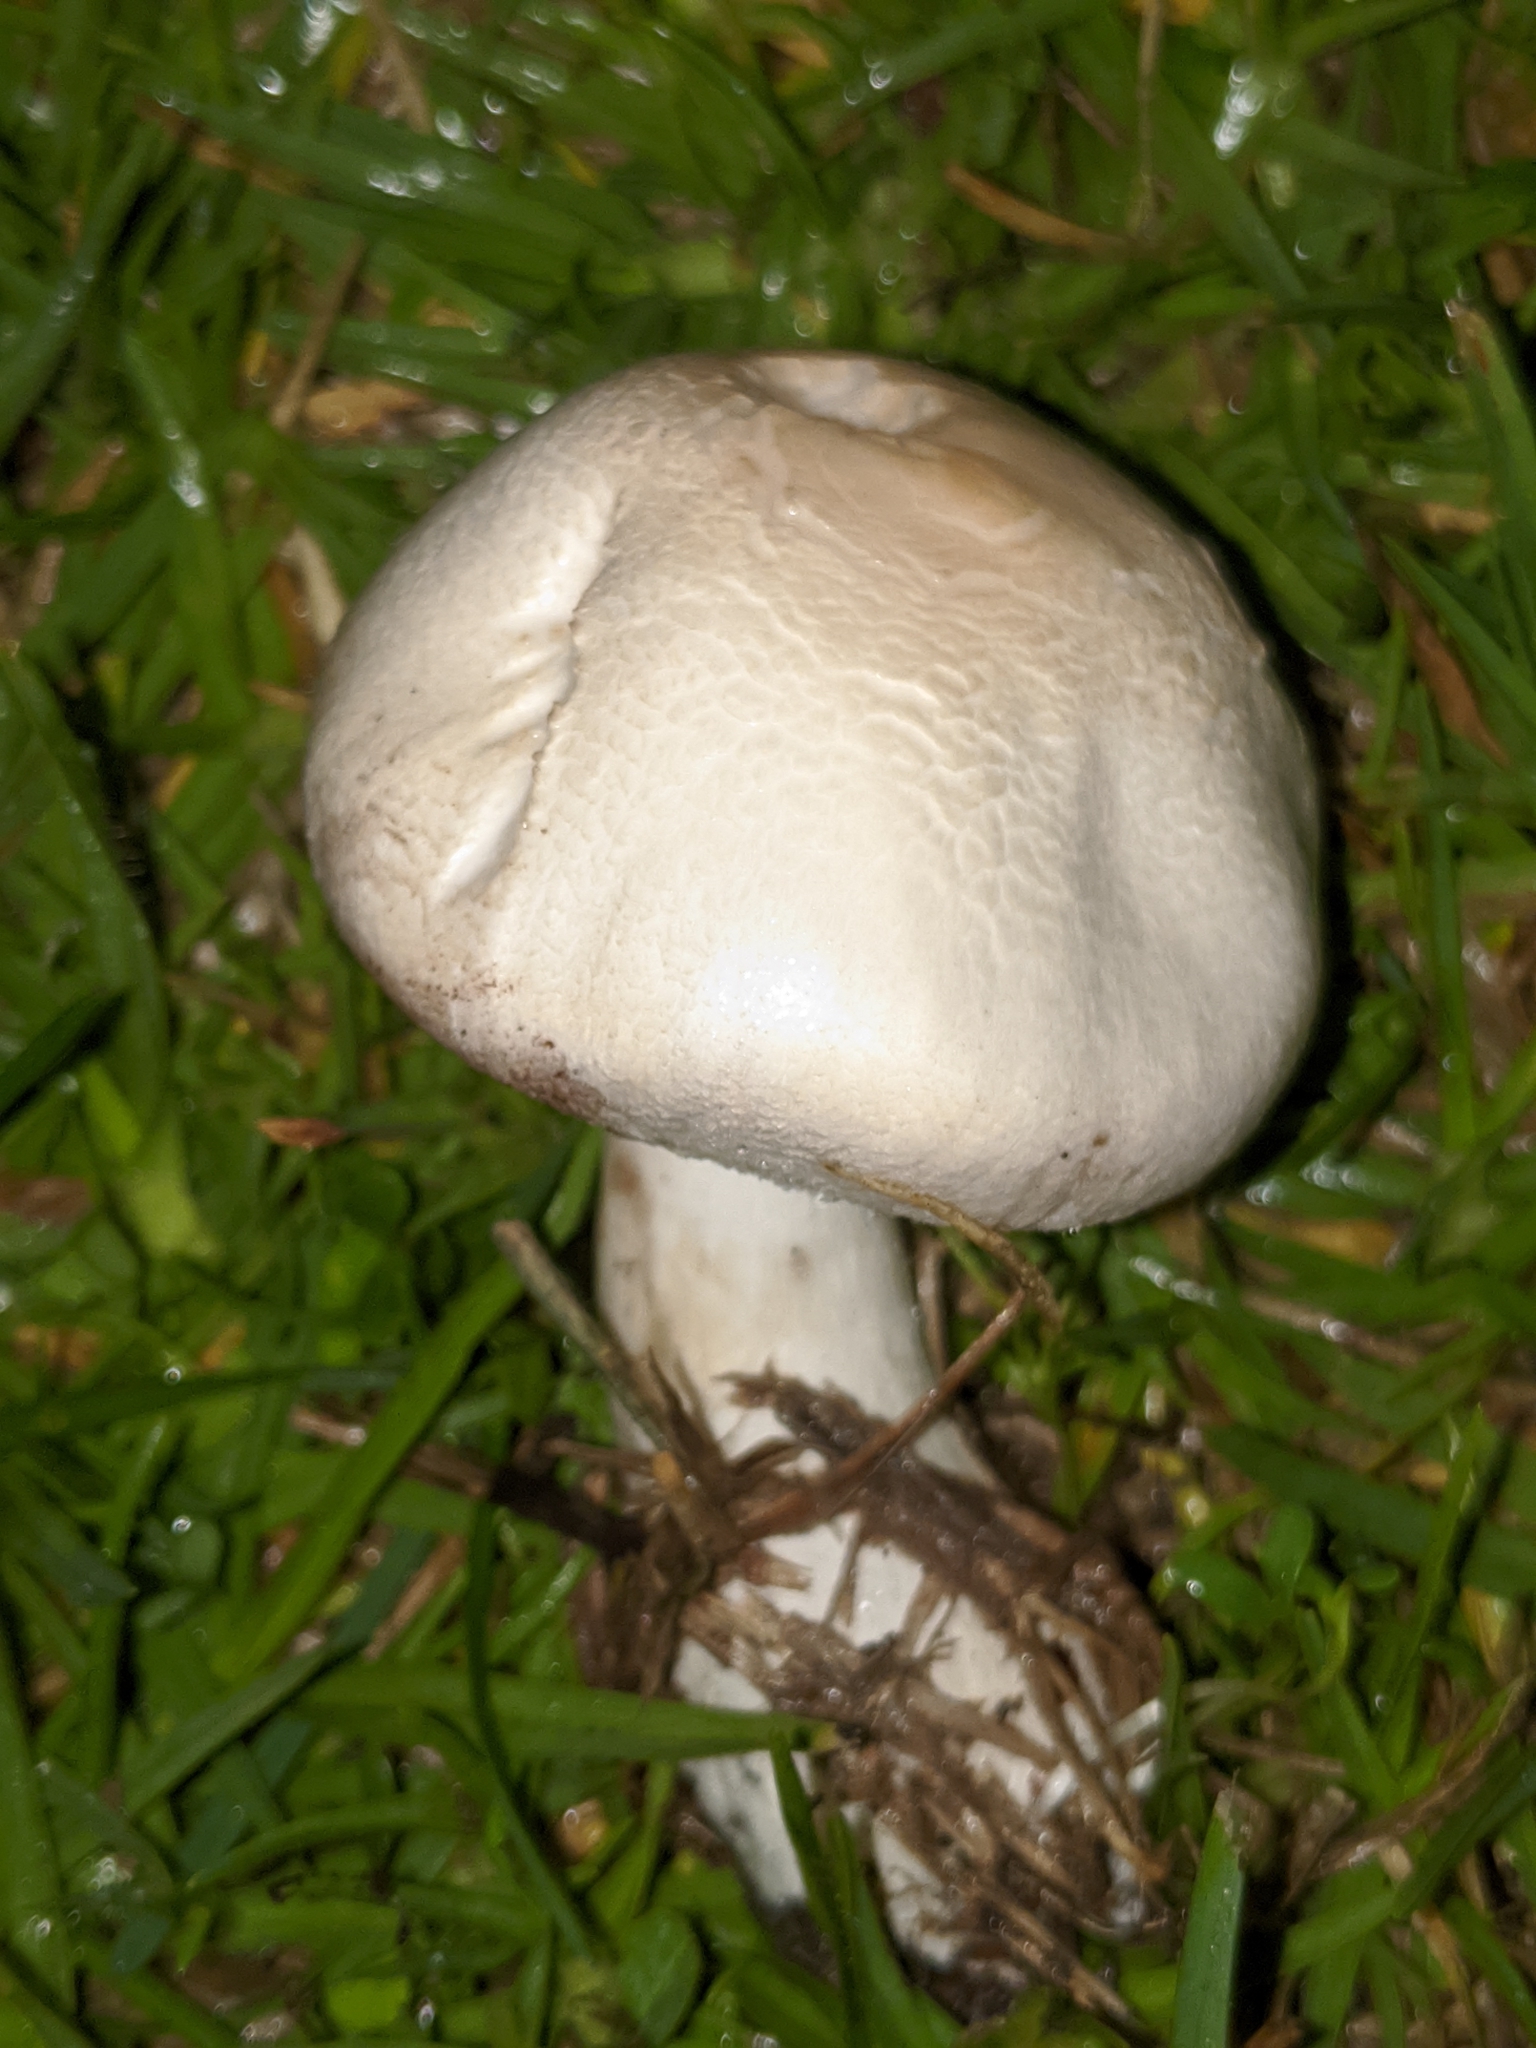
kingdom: Fungi
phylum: Basidiomycota
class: Agaricomycetes
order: Agaricales
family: Agaricaceae
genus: Leucoagaricus
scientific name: Leucoagaricus leucothites
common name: White dapperling
